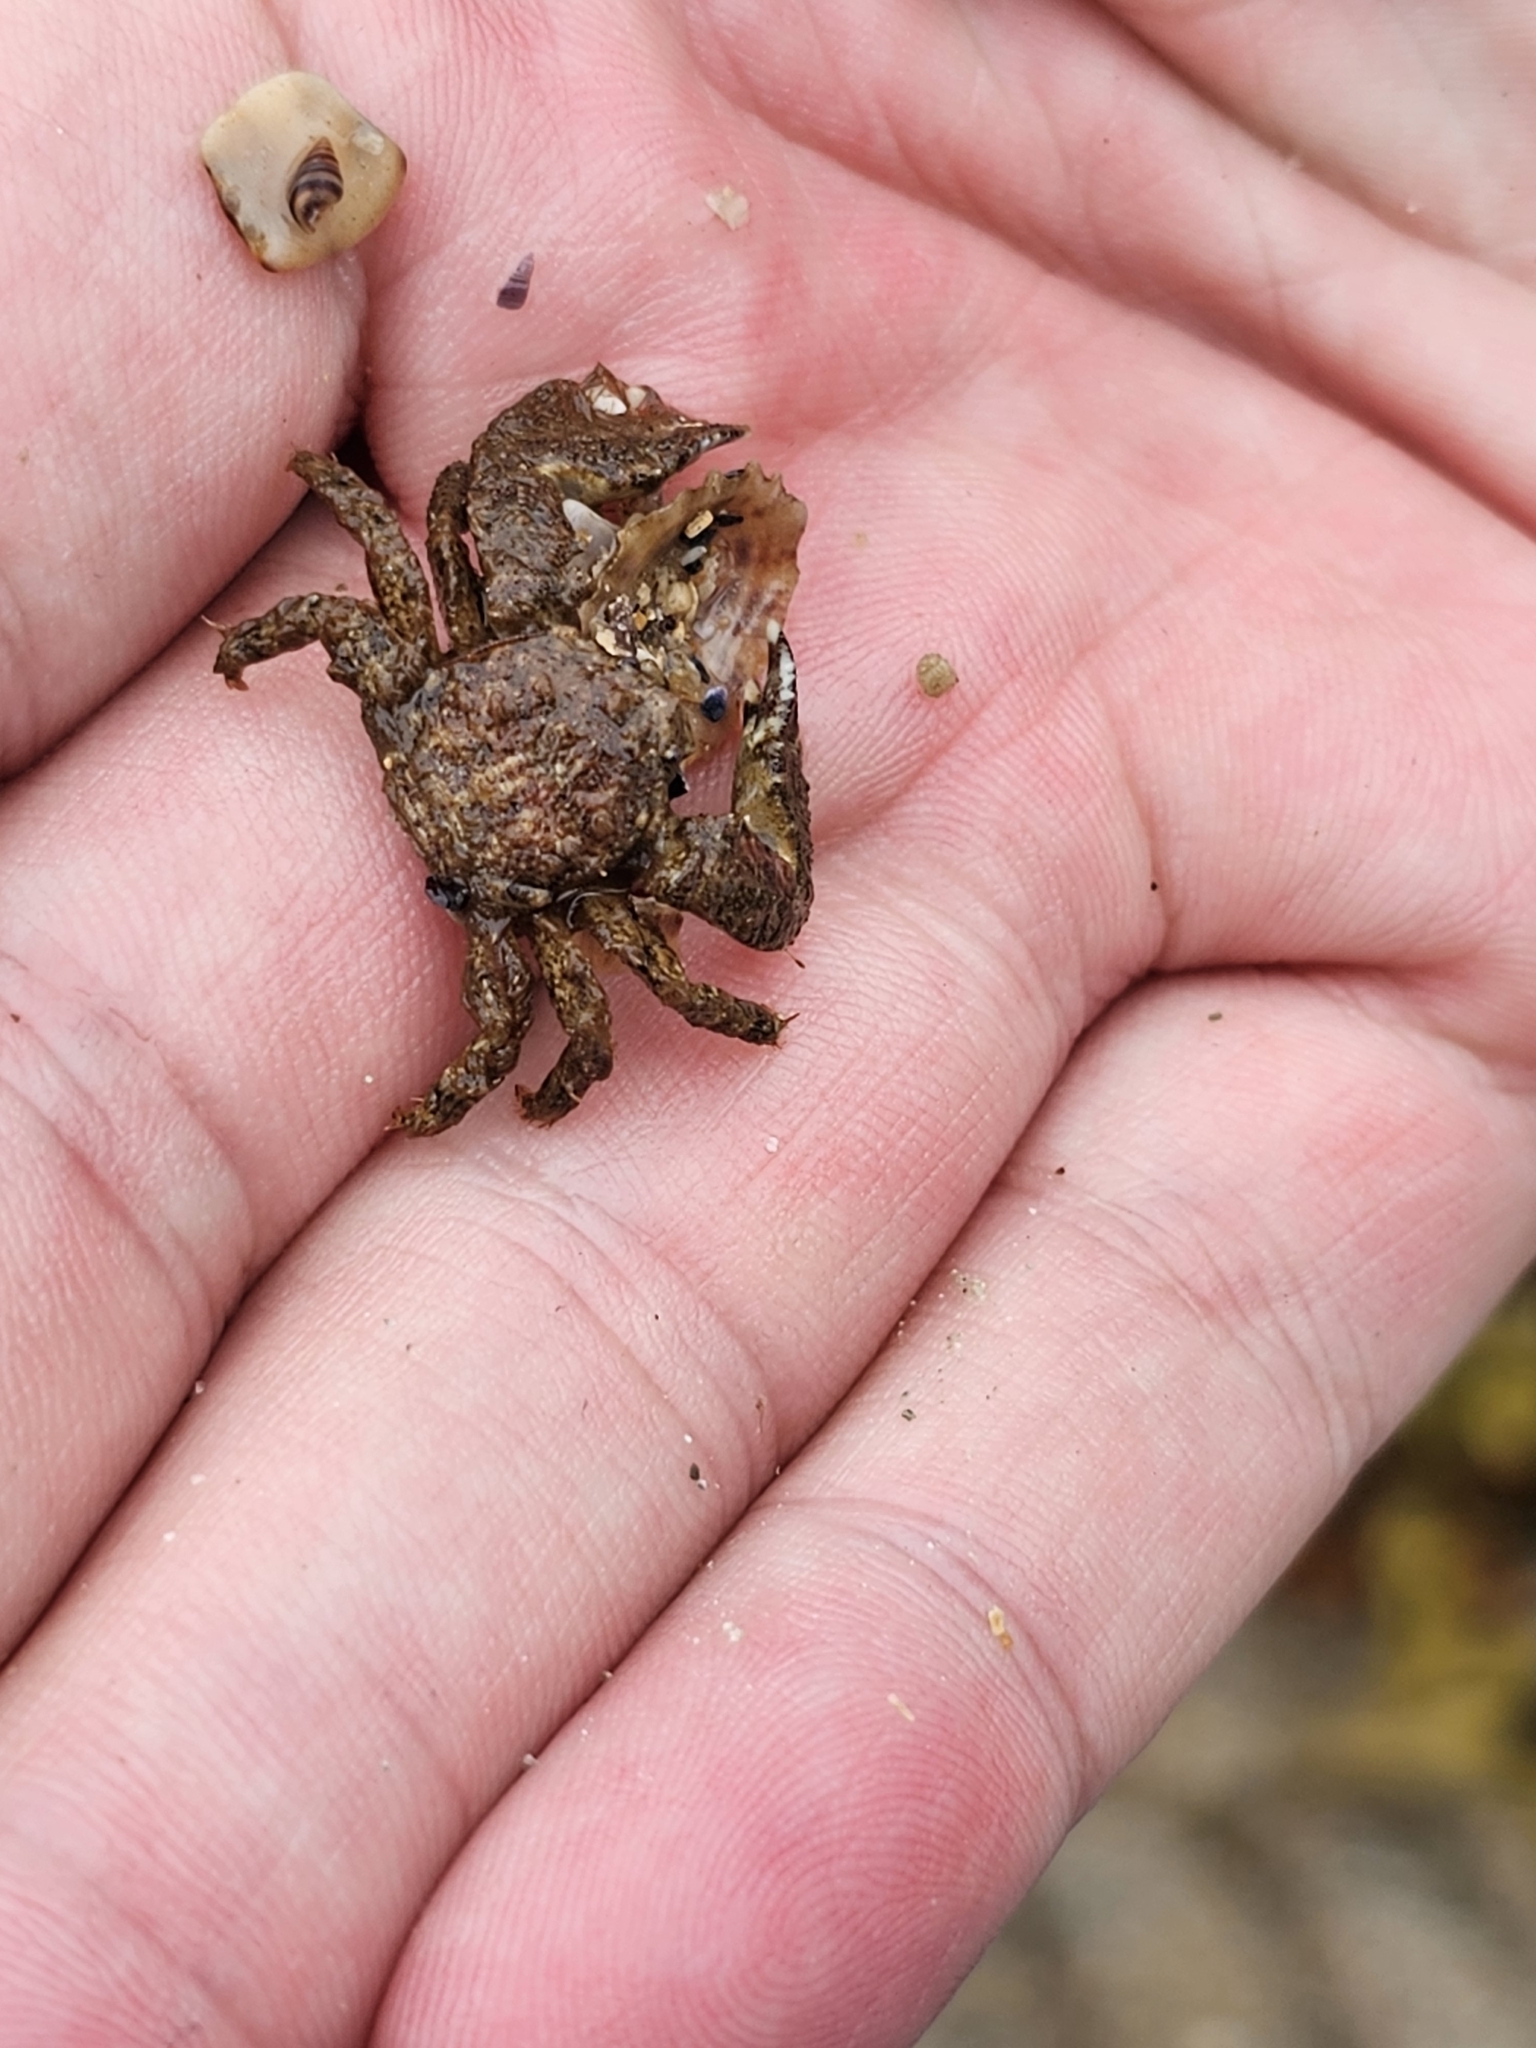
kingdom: Animalia
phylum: Arthropoda
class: Malacostraca
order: Decapoda
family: Porcellanidae
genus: Porcellana
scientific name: Porcellana platycheles
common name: Porcelain crab
